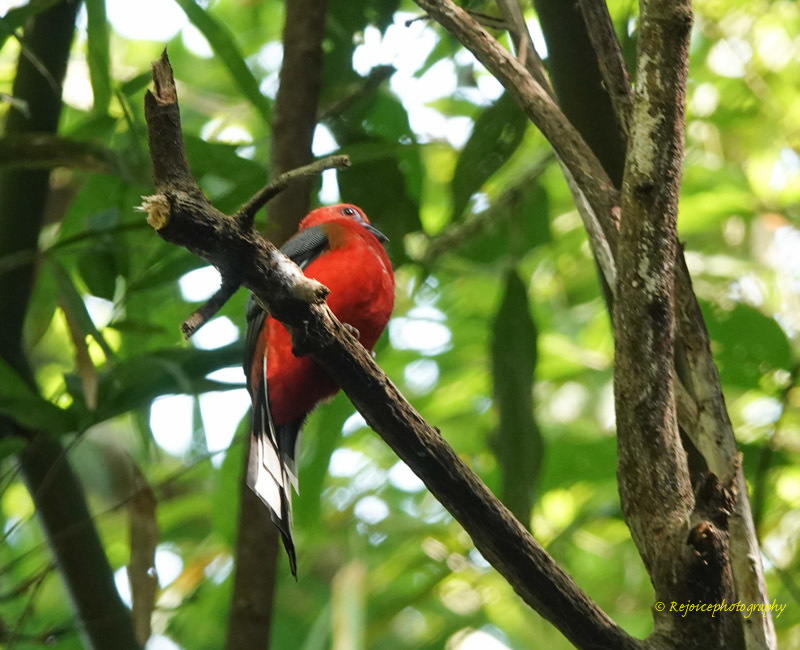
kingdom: Animalia
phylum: Chordata
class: Aves
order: Trogoniformes
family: Trogonidae
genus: Harpactes
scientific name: Harpactes erythrocephalus
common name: Red-headed trogon
